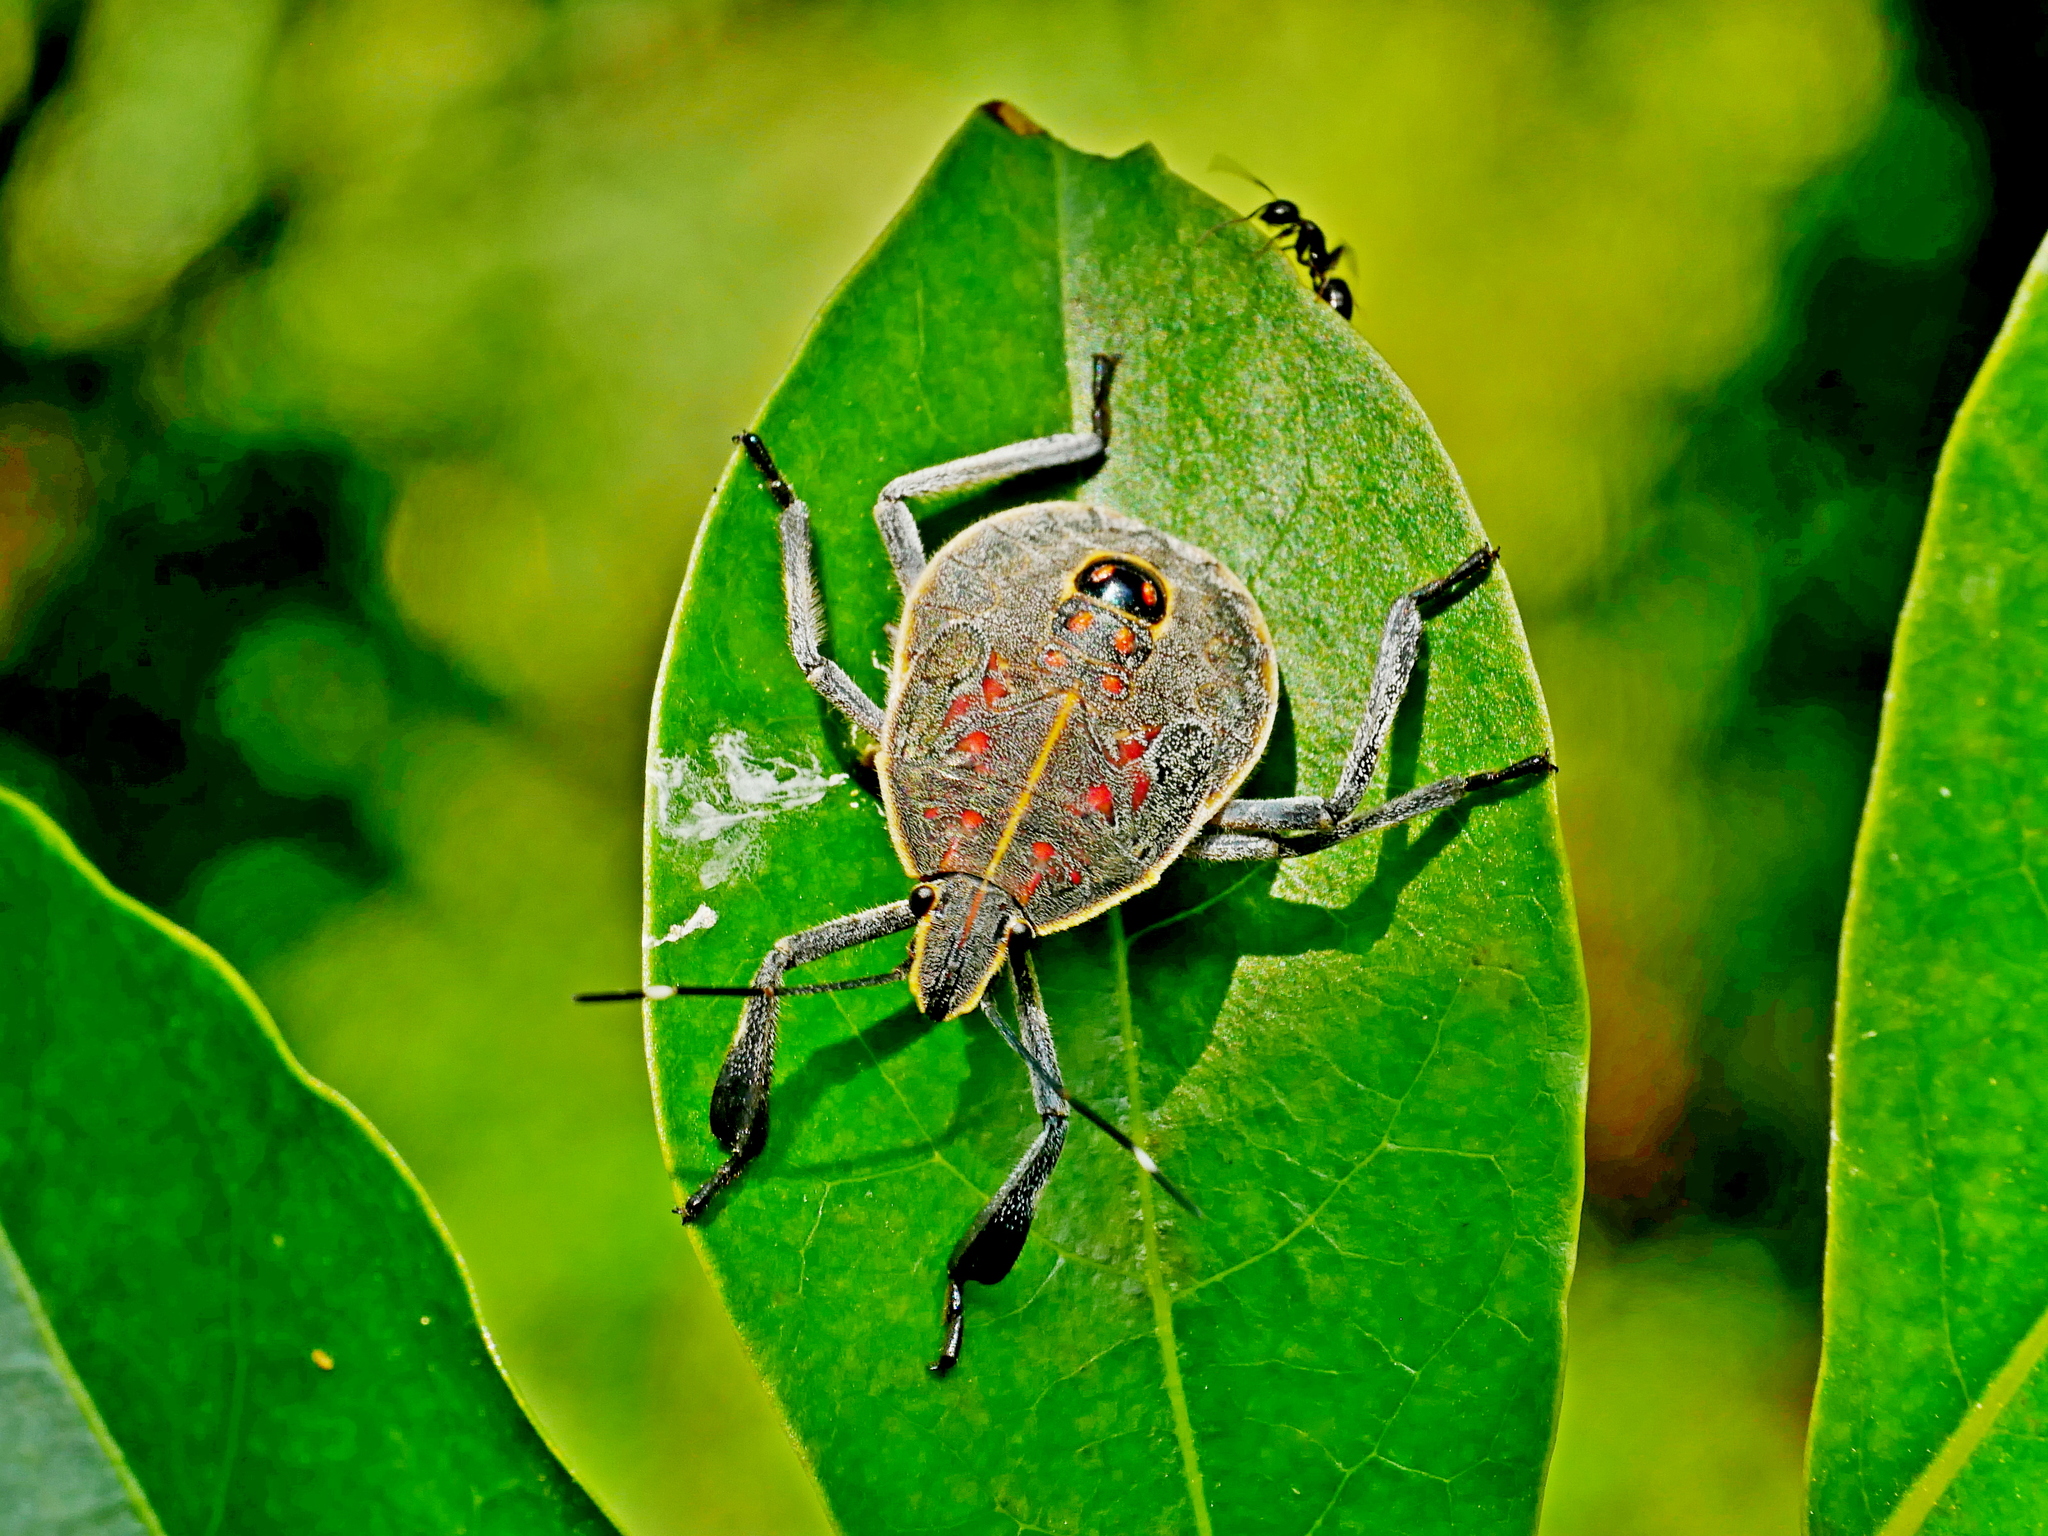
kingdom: Animalia
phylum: Arthropoda
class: Insecta
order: Hemiptera
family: Pentatomidae
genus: Erthesina
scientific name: Erthesina fullo
